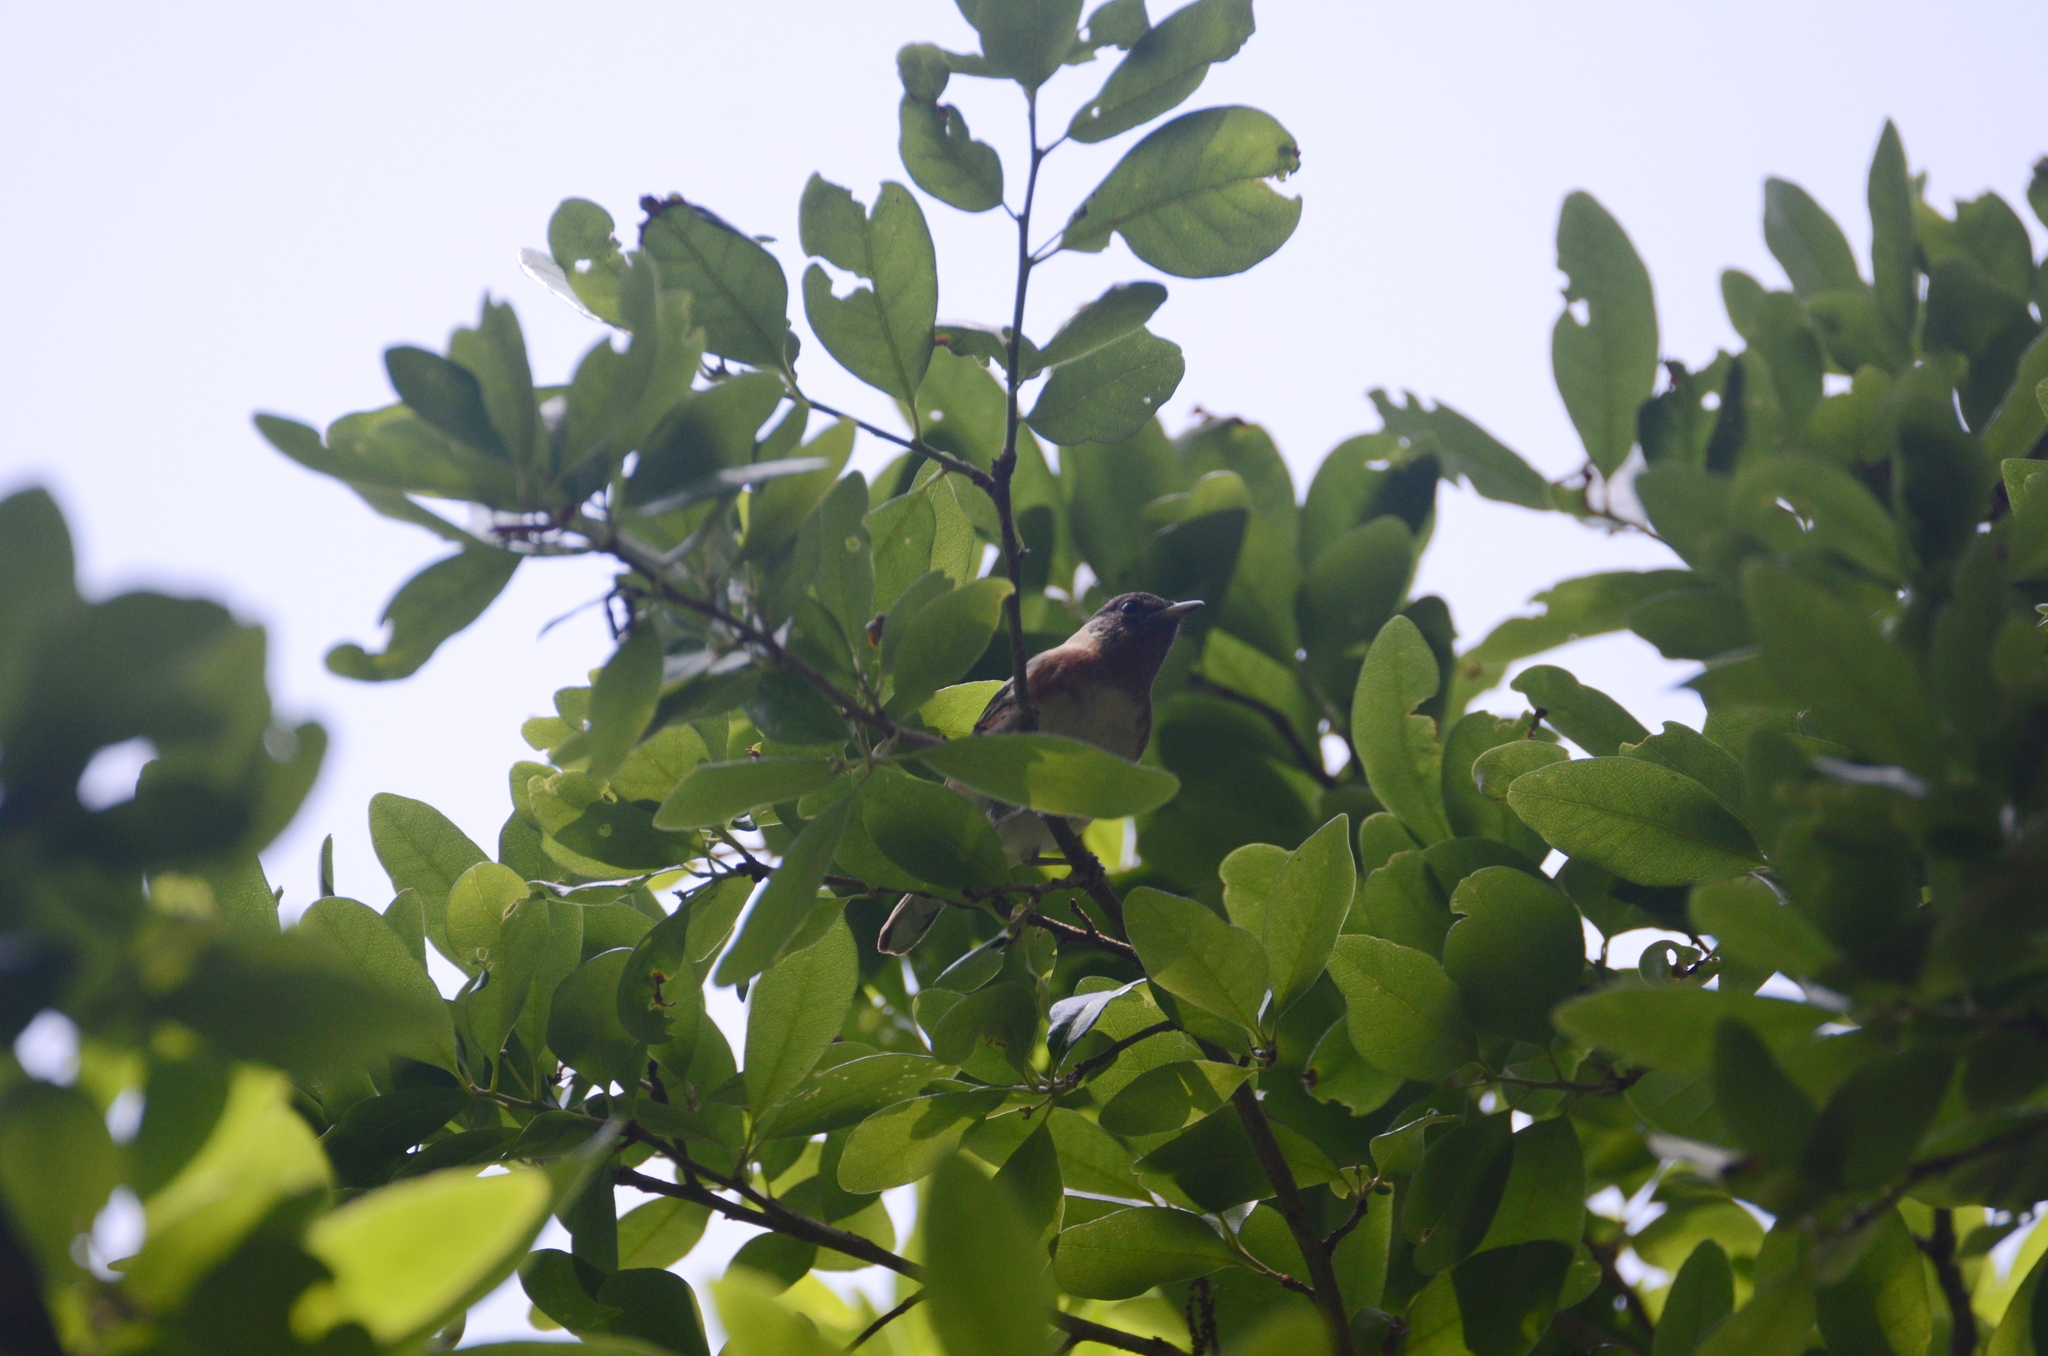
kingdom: Animalia
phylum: Chordata
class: Aves
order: Passeriformes
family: Parulidae
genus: Setophaga
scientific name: Setophaga castanea
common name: Bay-breasted warbler
